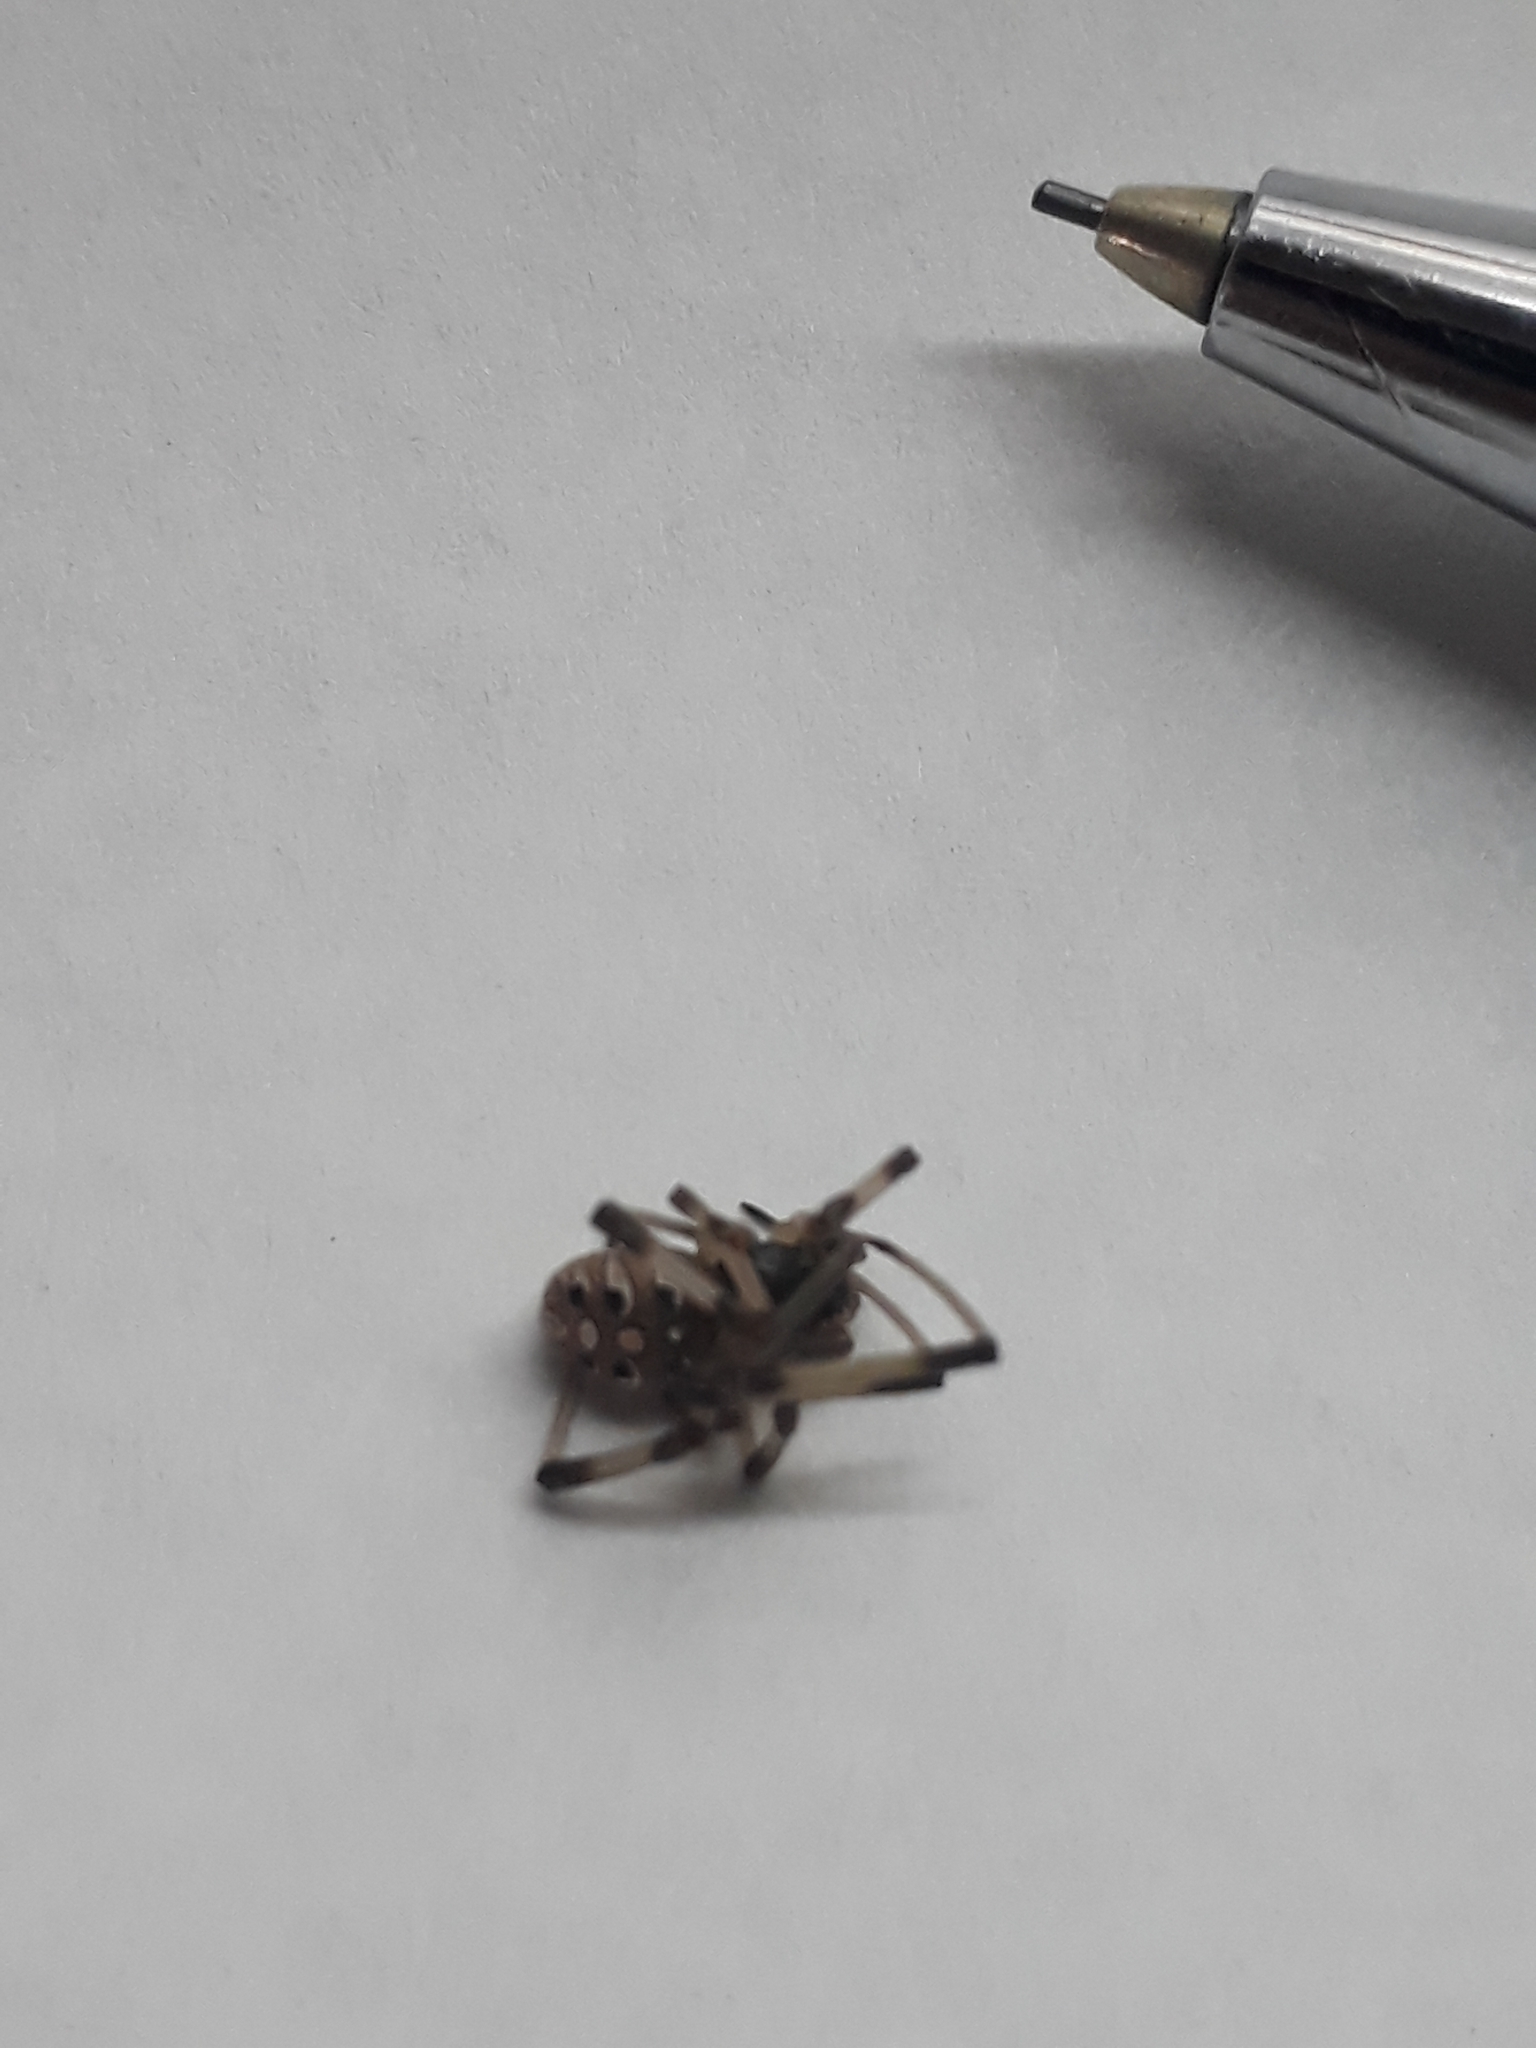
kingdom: Animalia
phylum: Arthropoda
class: Arachnida
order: Araneae
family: Theridiidae
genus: Latrodectus
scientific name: Latrodectus geometricus
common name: Brown widow spider
